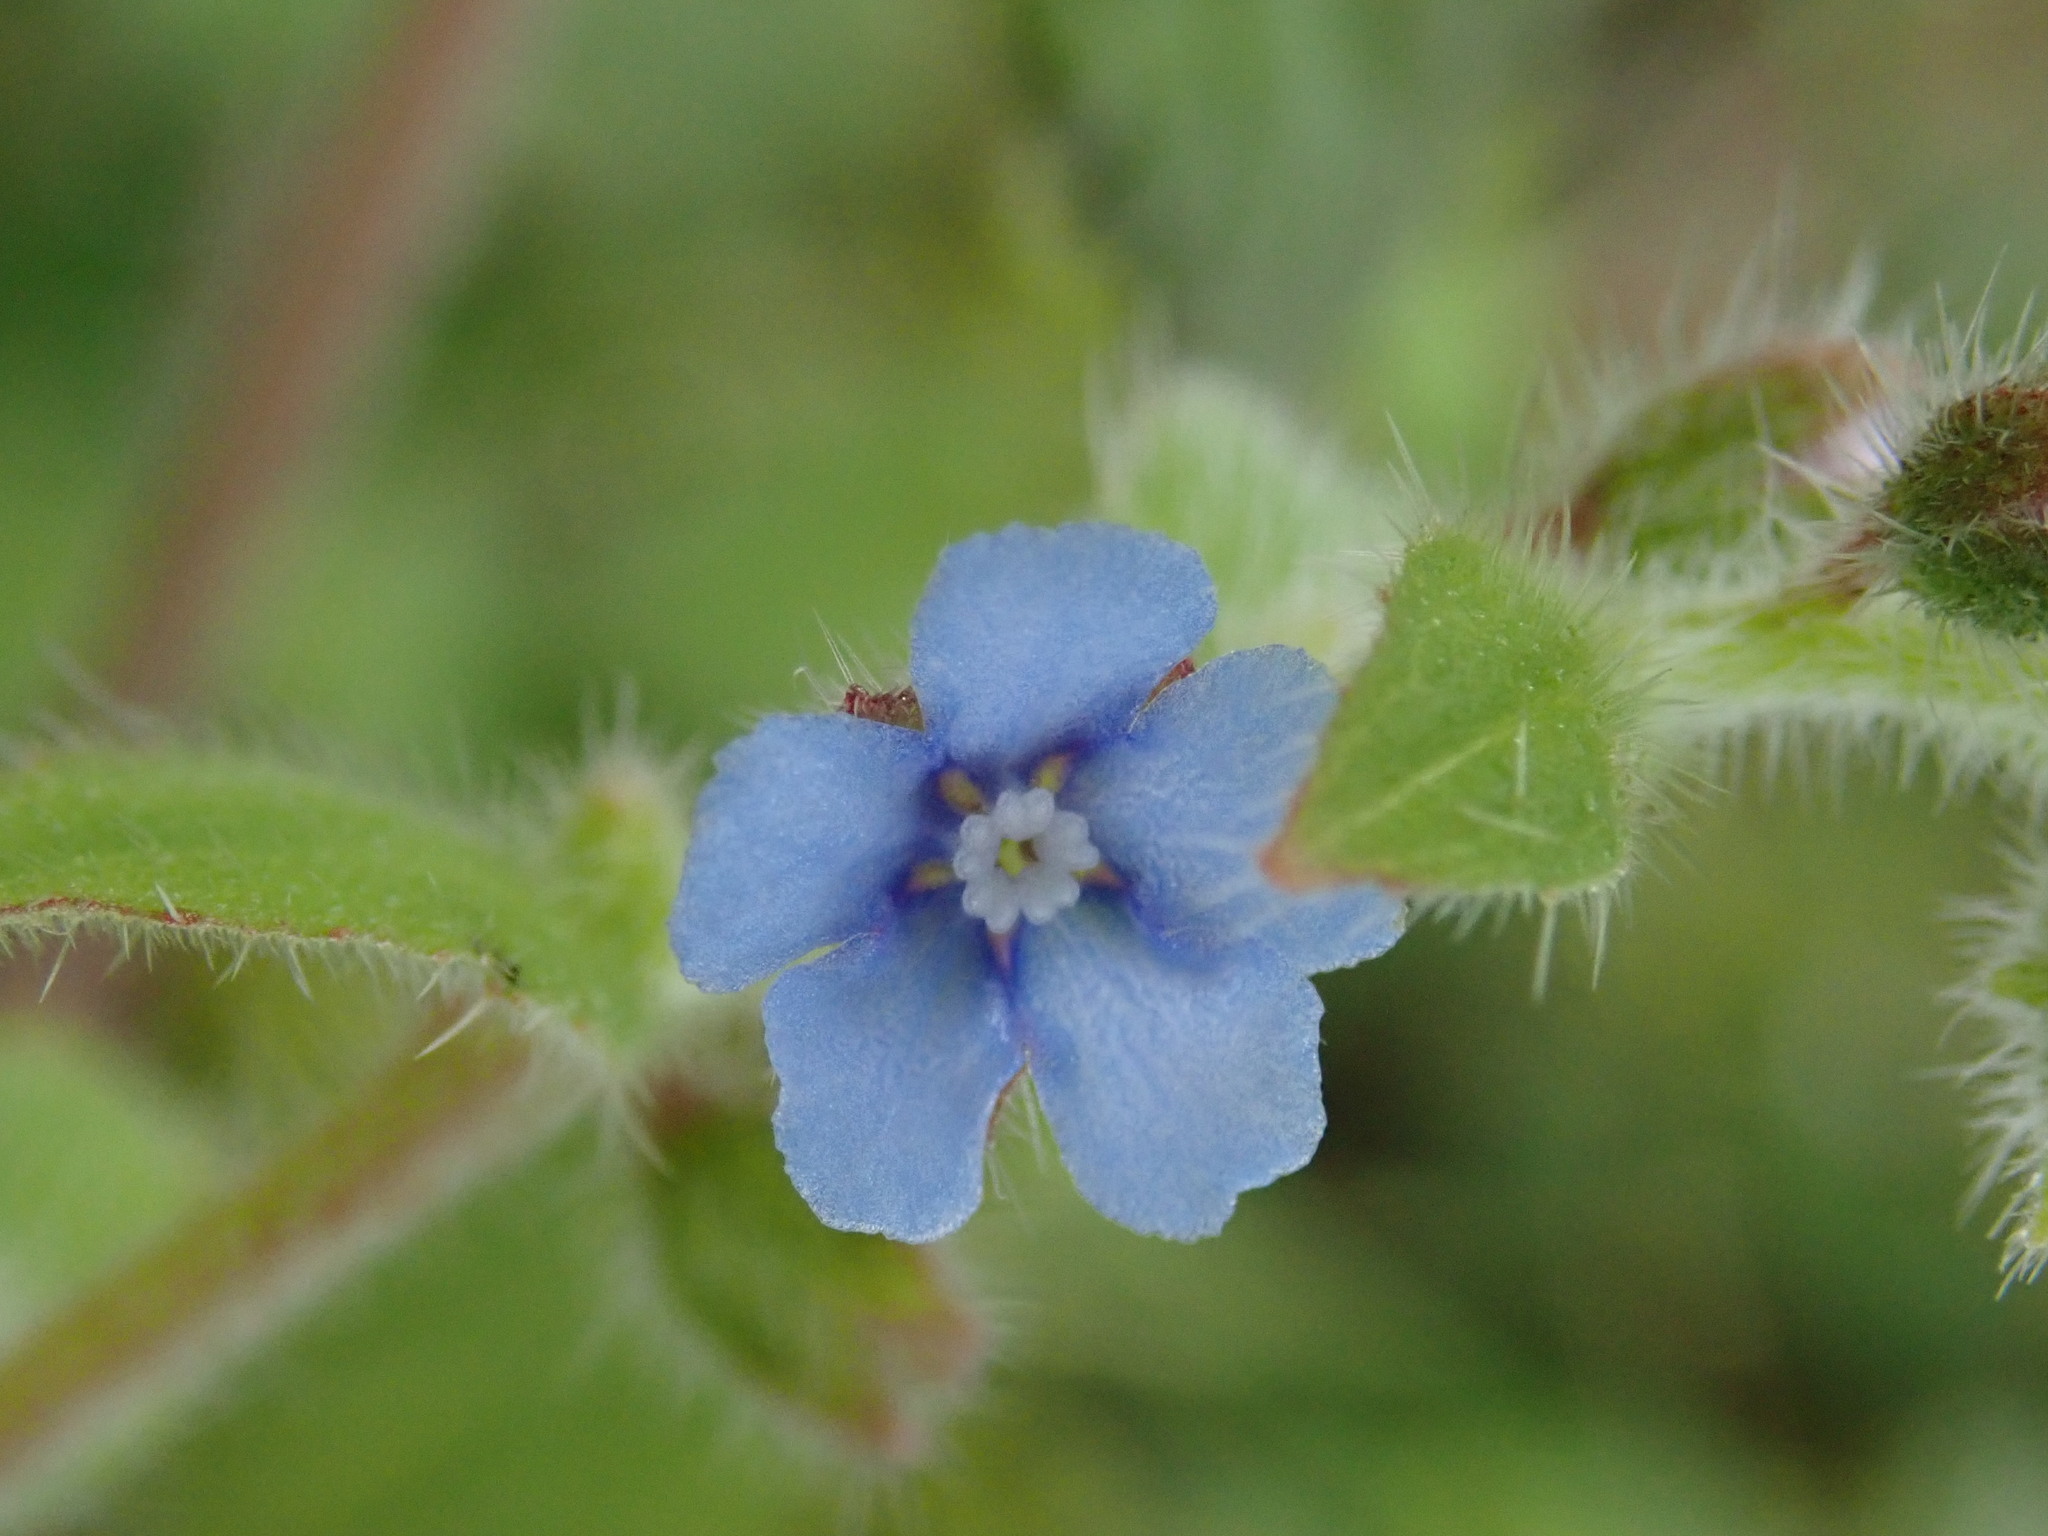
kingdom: Plantae
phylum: Tracheophyta
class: Magnoliopsida
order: Boraginales
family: Boraginaceae
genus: Thyrocarpus
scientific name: Thyrocarpus sampsonii
